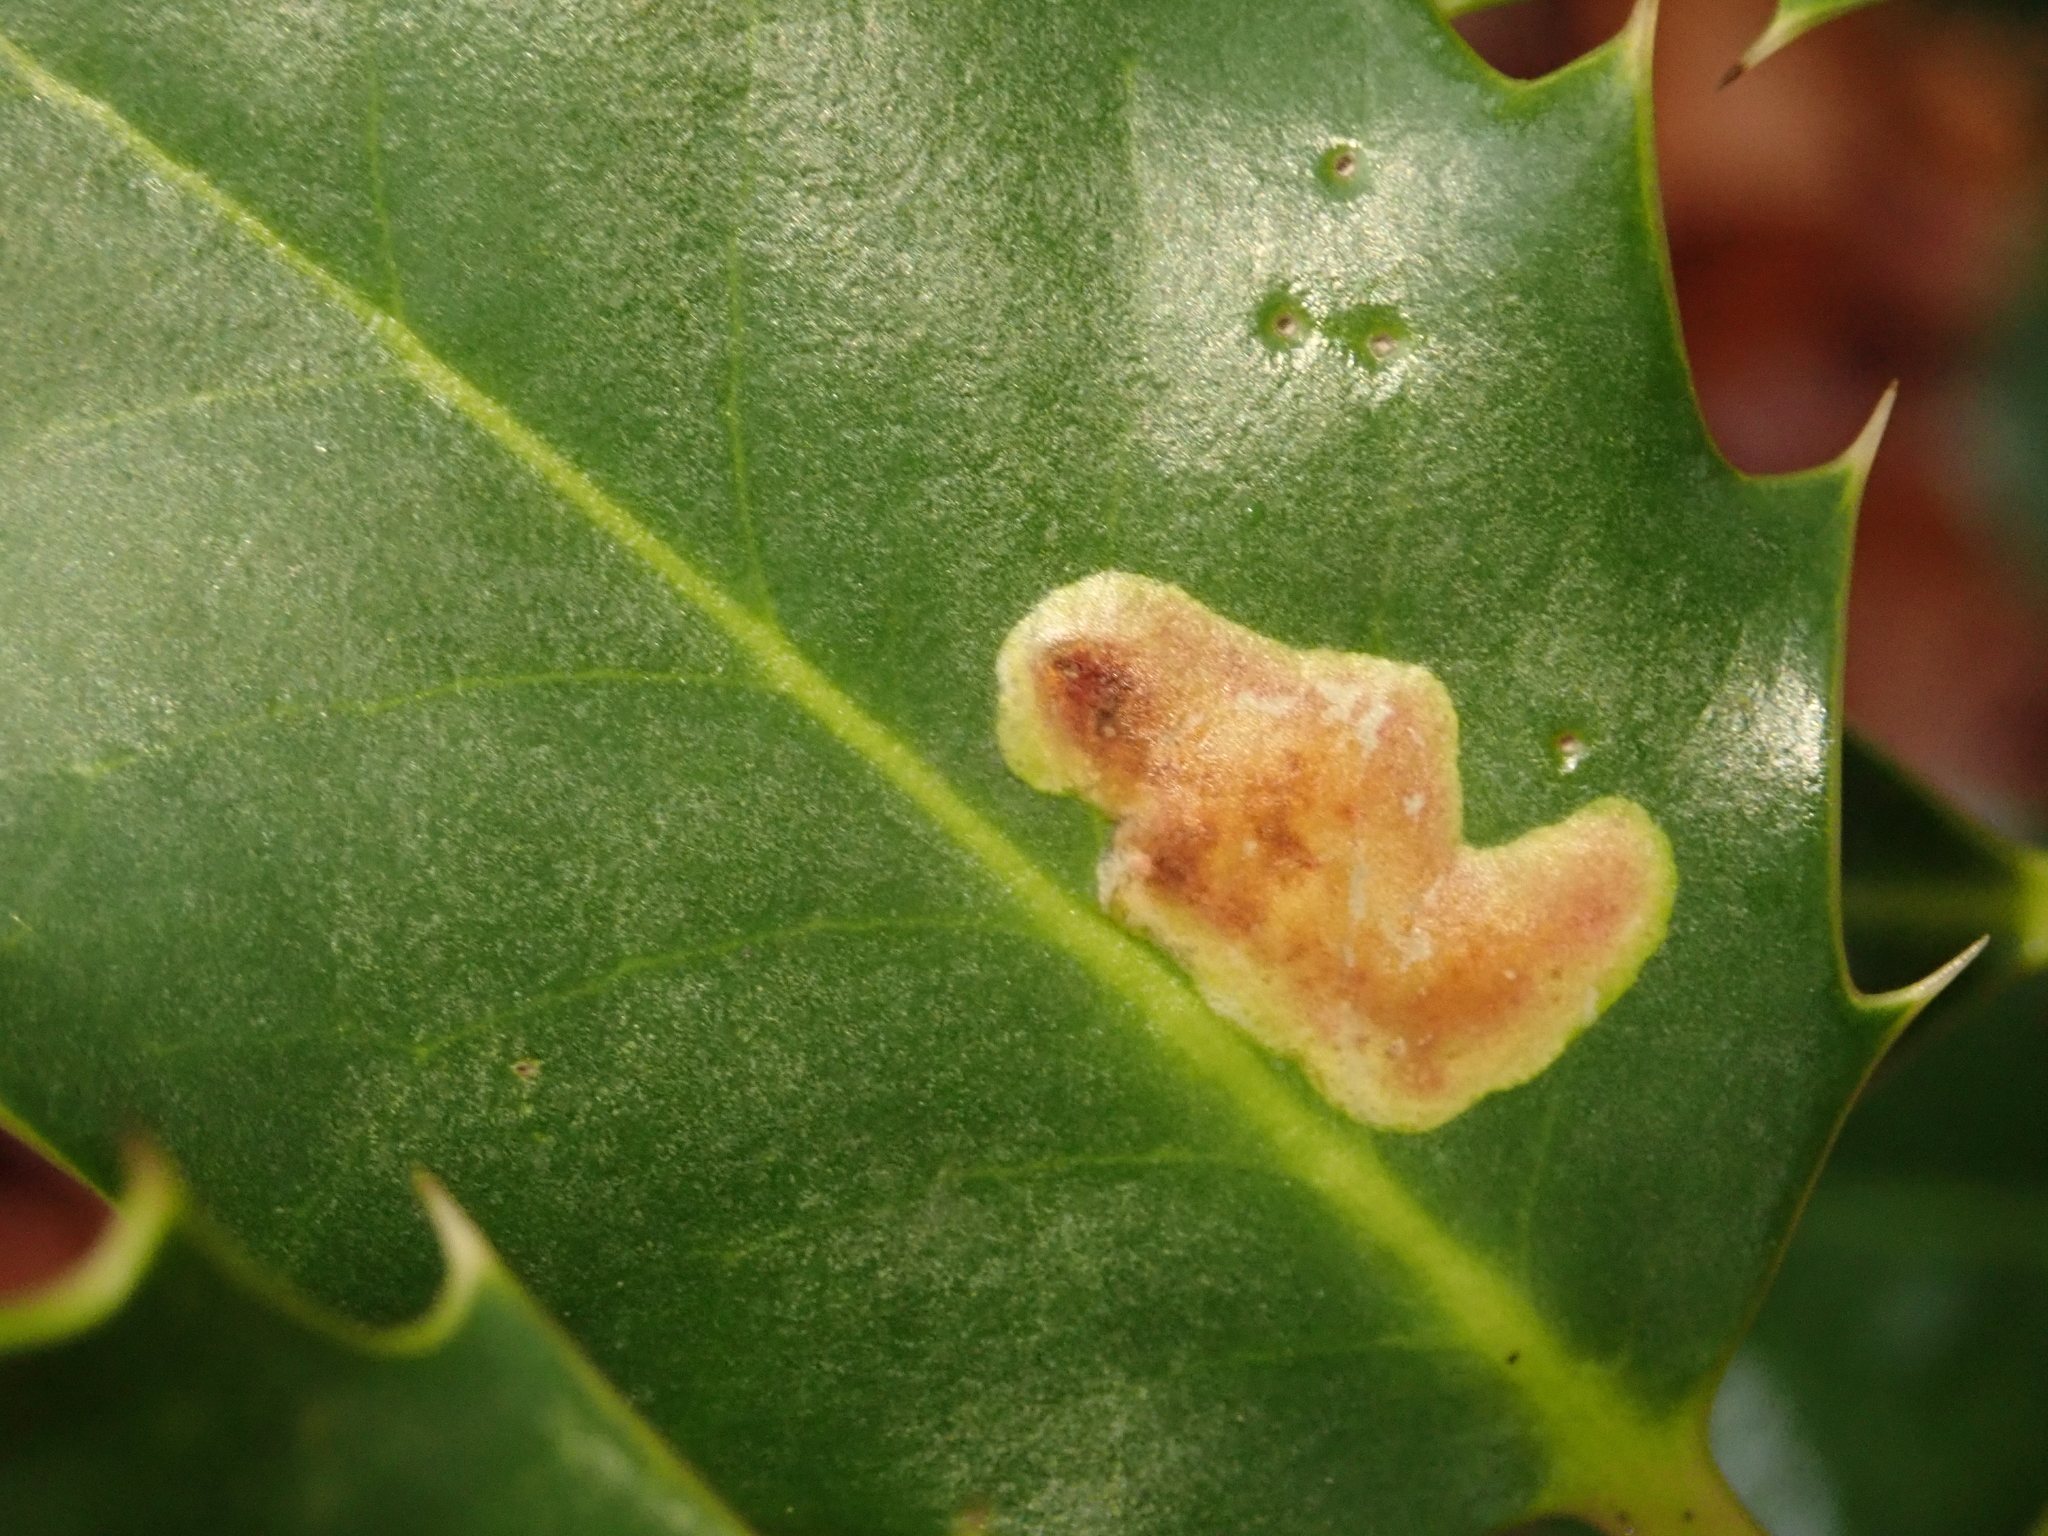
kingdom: Animalia
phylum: Arthropoda
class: Insecta
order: Diptera
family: Agromyzidae
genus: Phytomyza
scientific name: Phytomyza ilicis
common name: Holly leafminer
